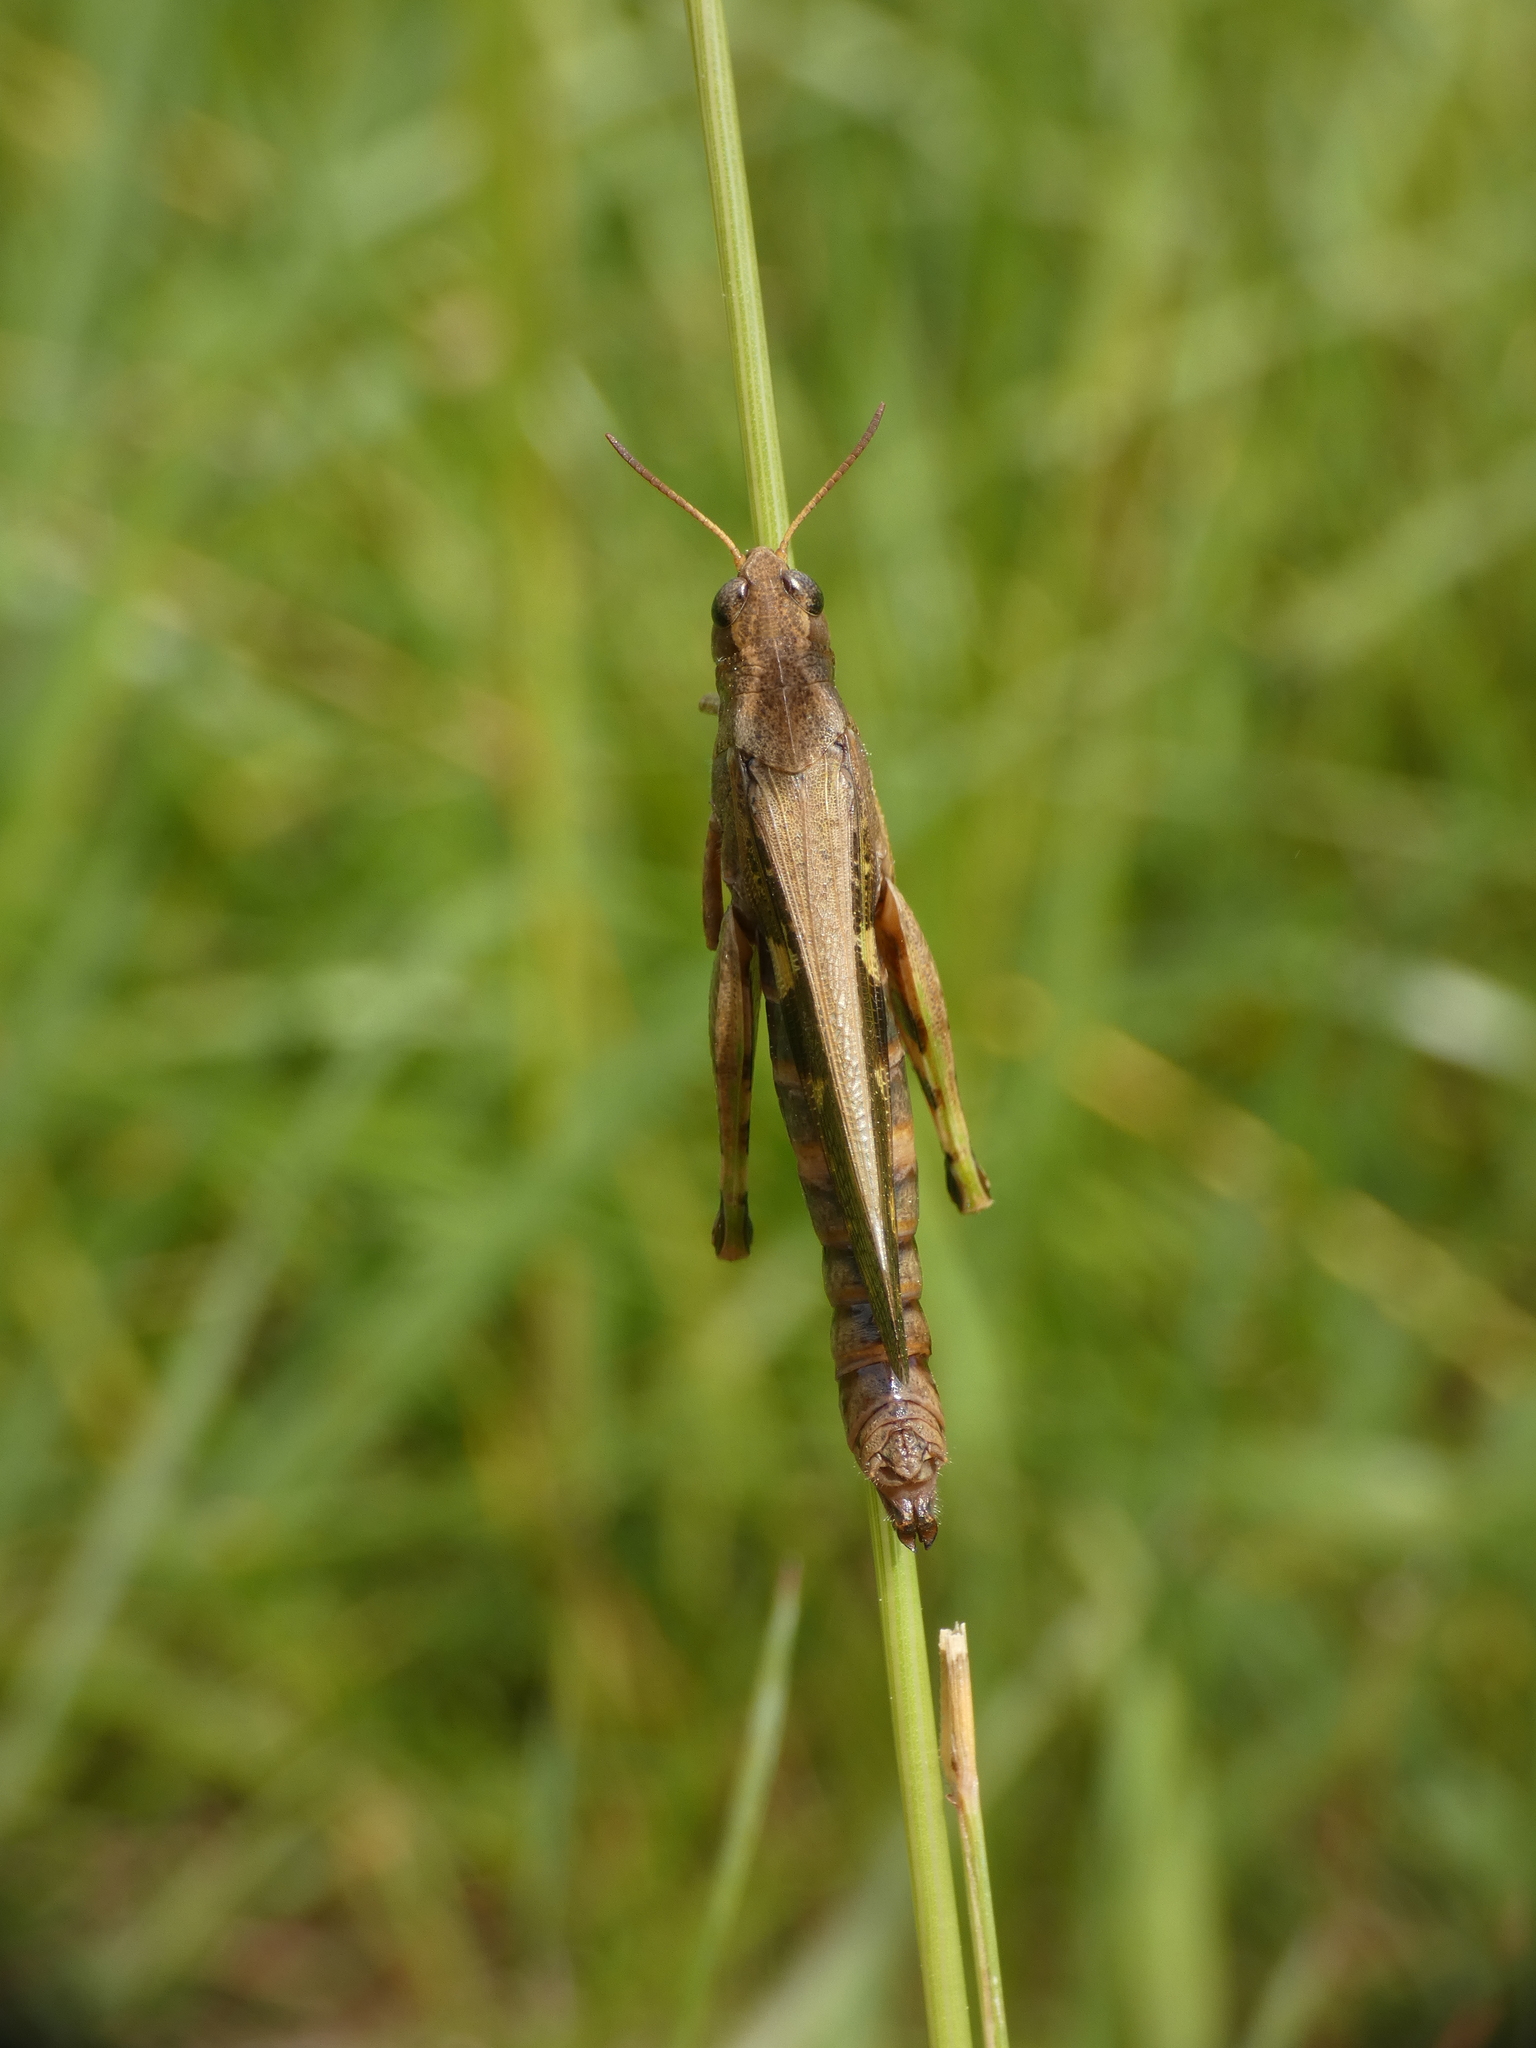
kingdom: Animalia
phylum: Arthropoda
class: Insecta
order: Orthoptera
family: Acrididae
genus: Aiolopus
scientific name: Aiolopus strepens
